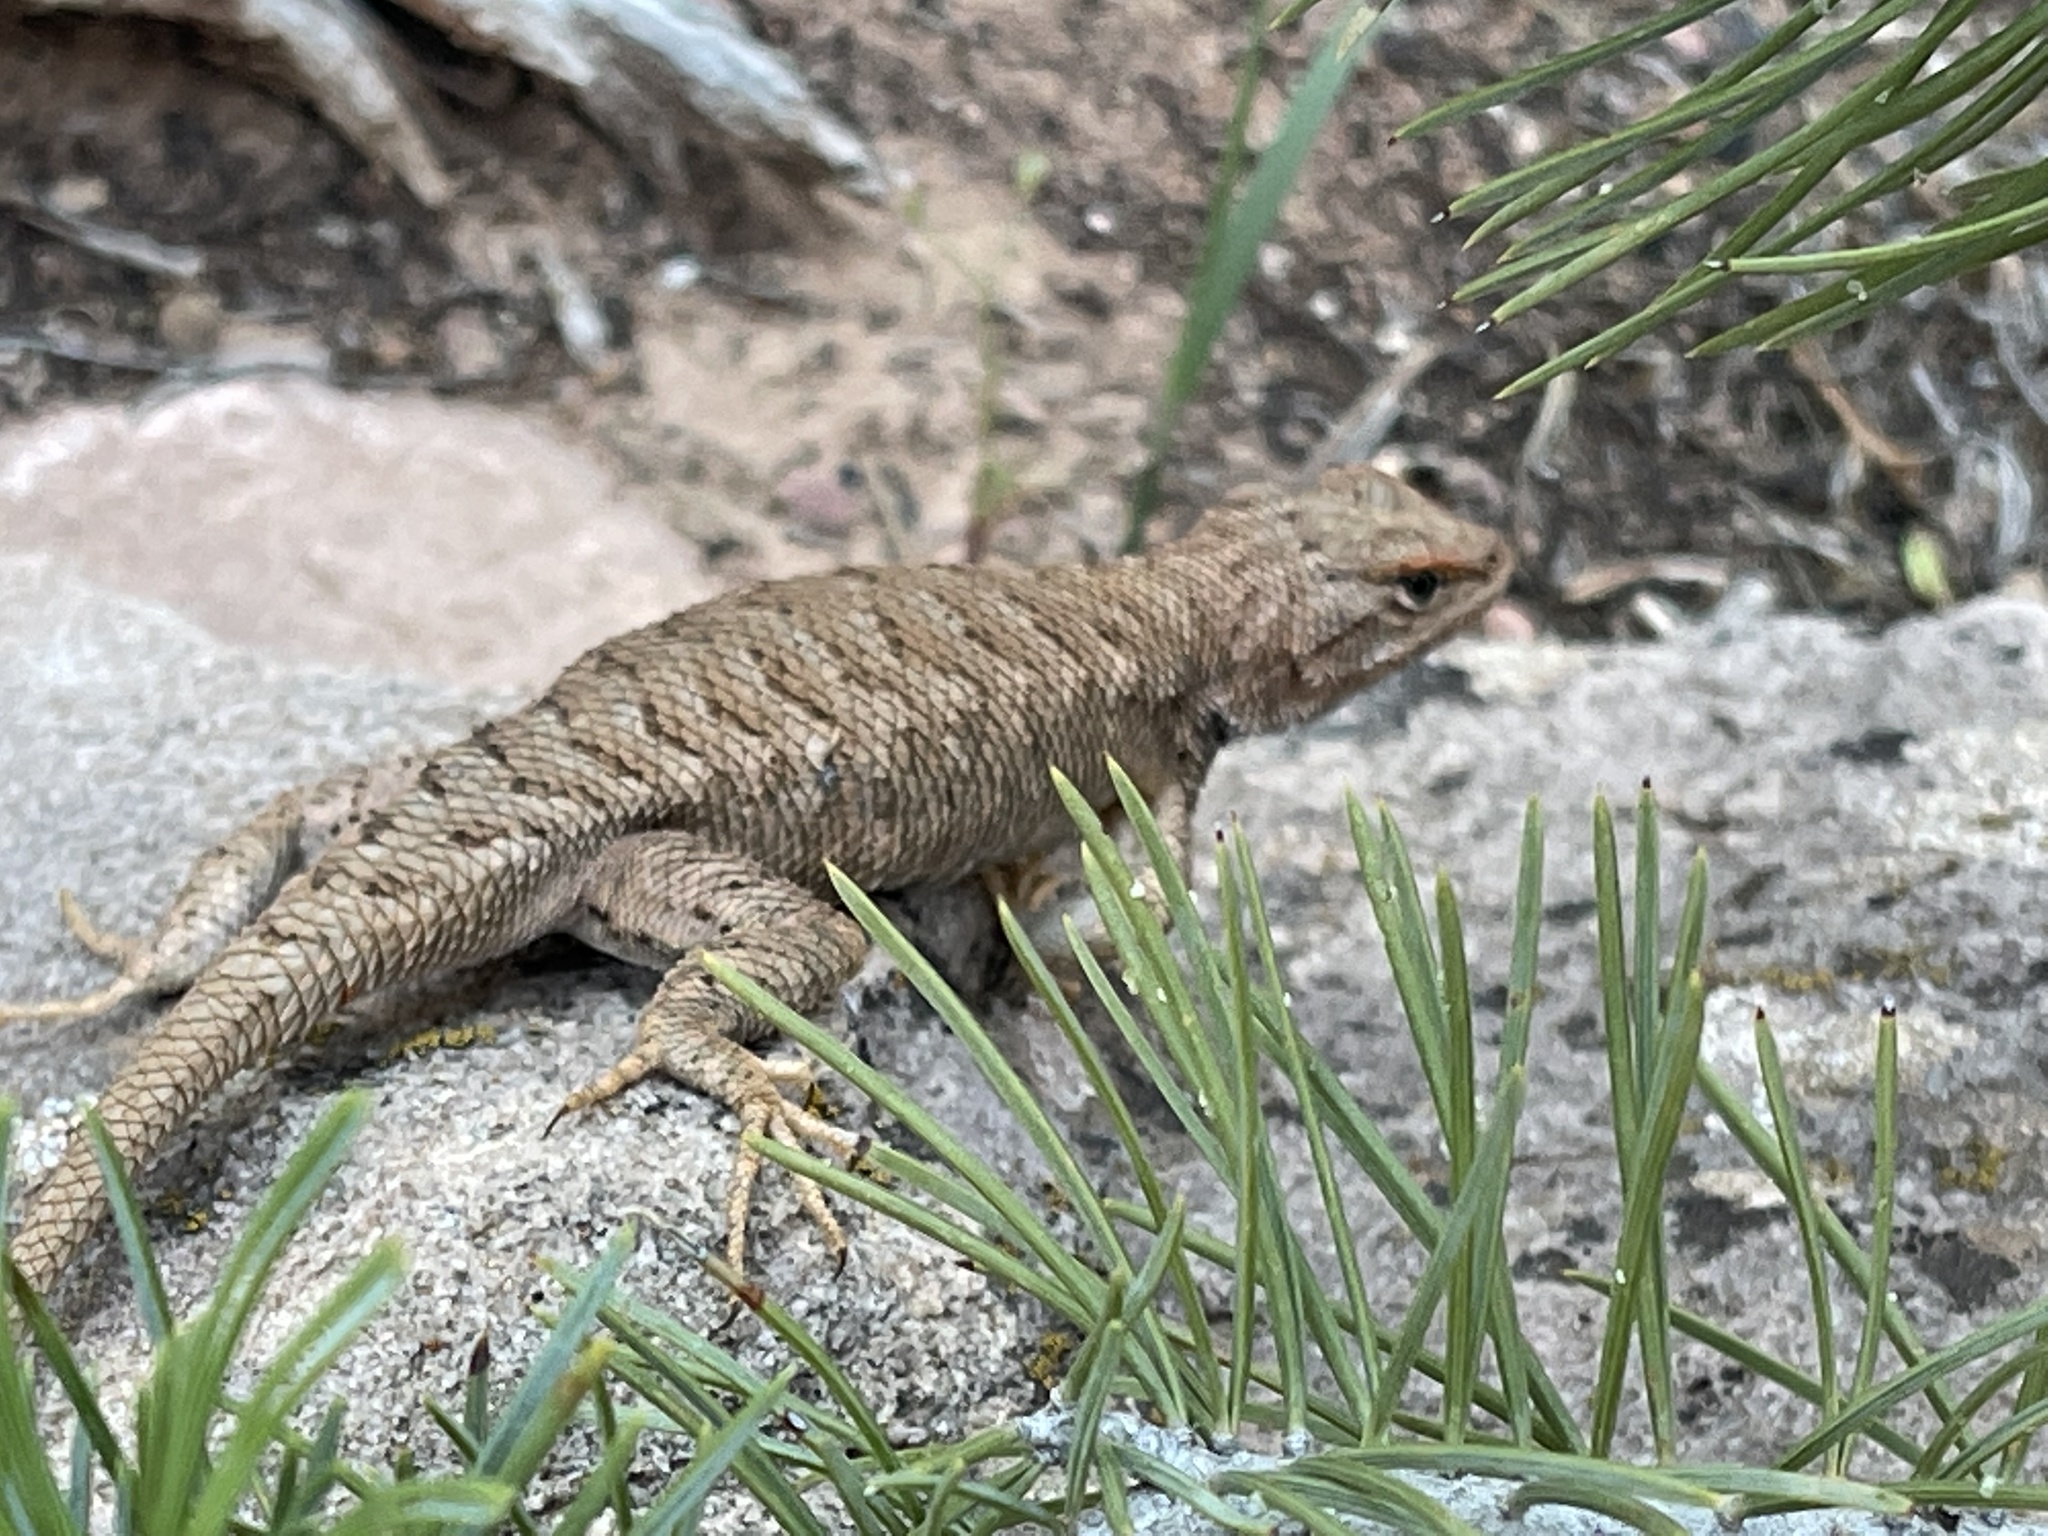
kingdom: Animalia
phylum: Chordata
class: Squamata
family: Phrynosomatidae
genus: Sceloporus
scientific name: Sceloporus tristichus
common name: Plateau fence lizard
